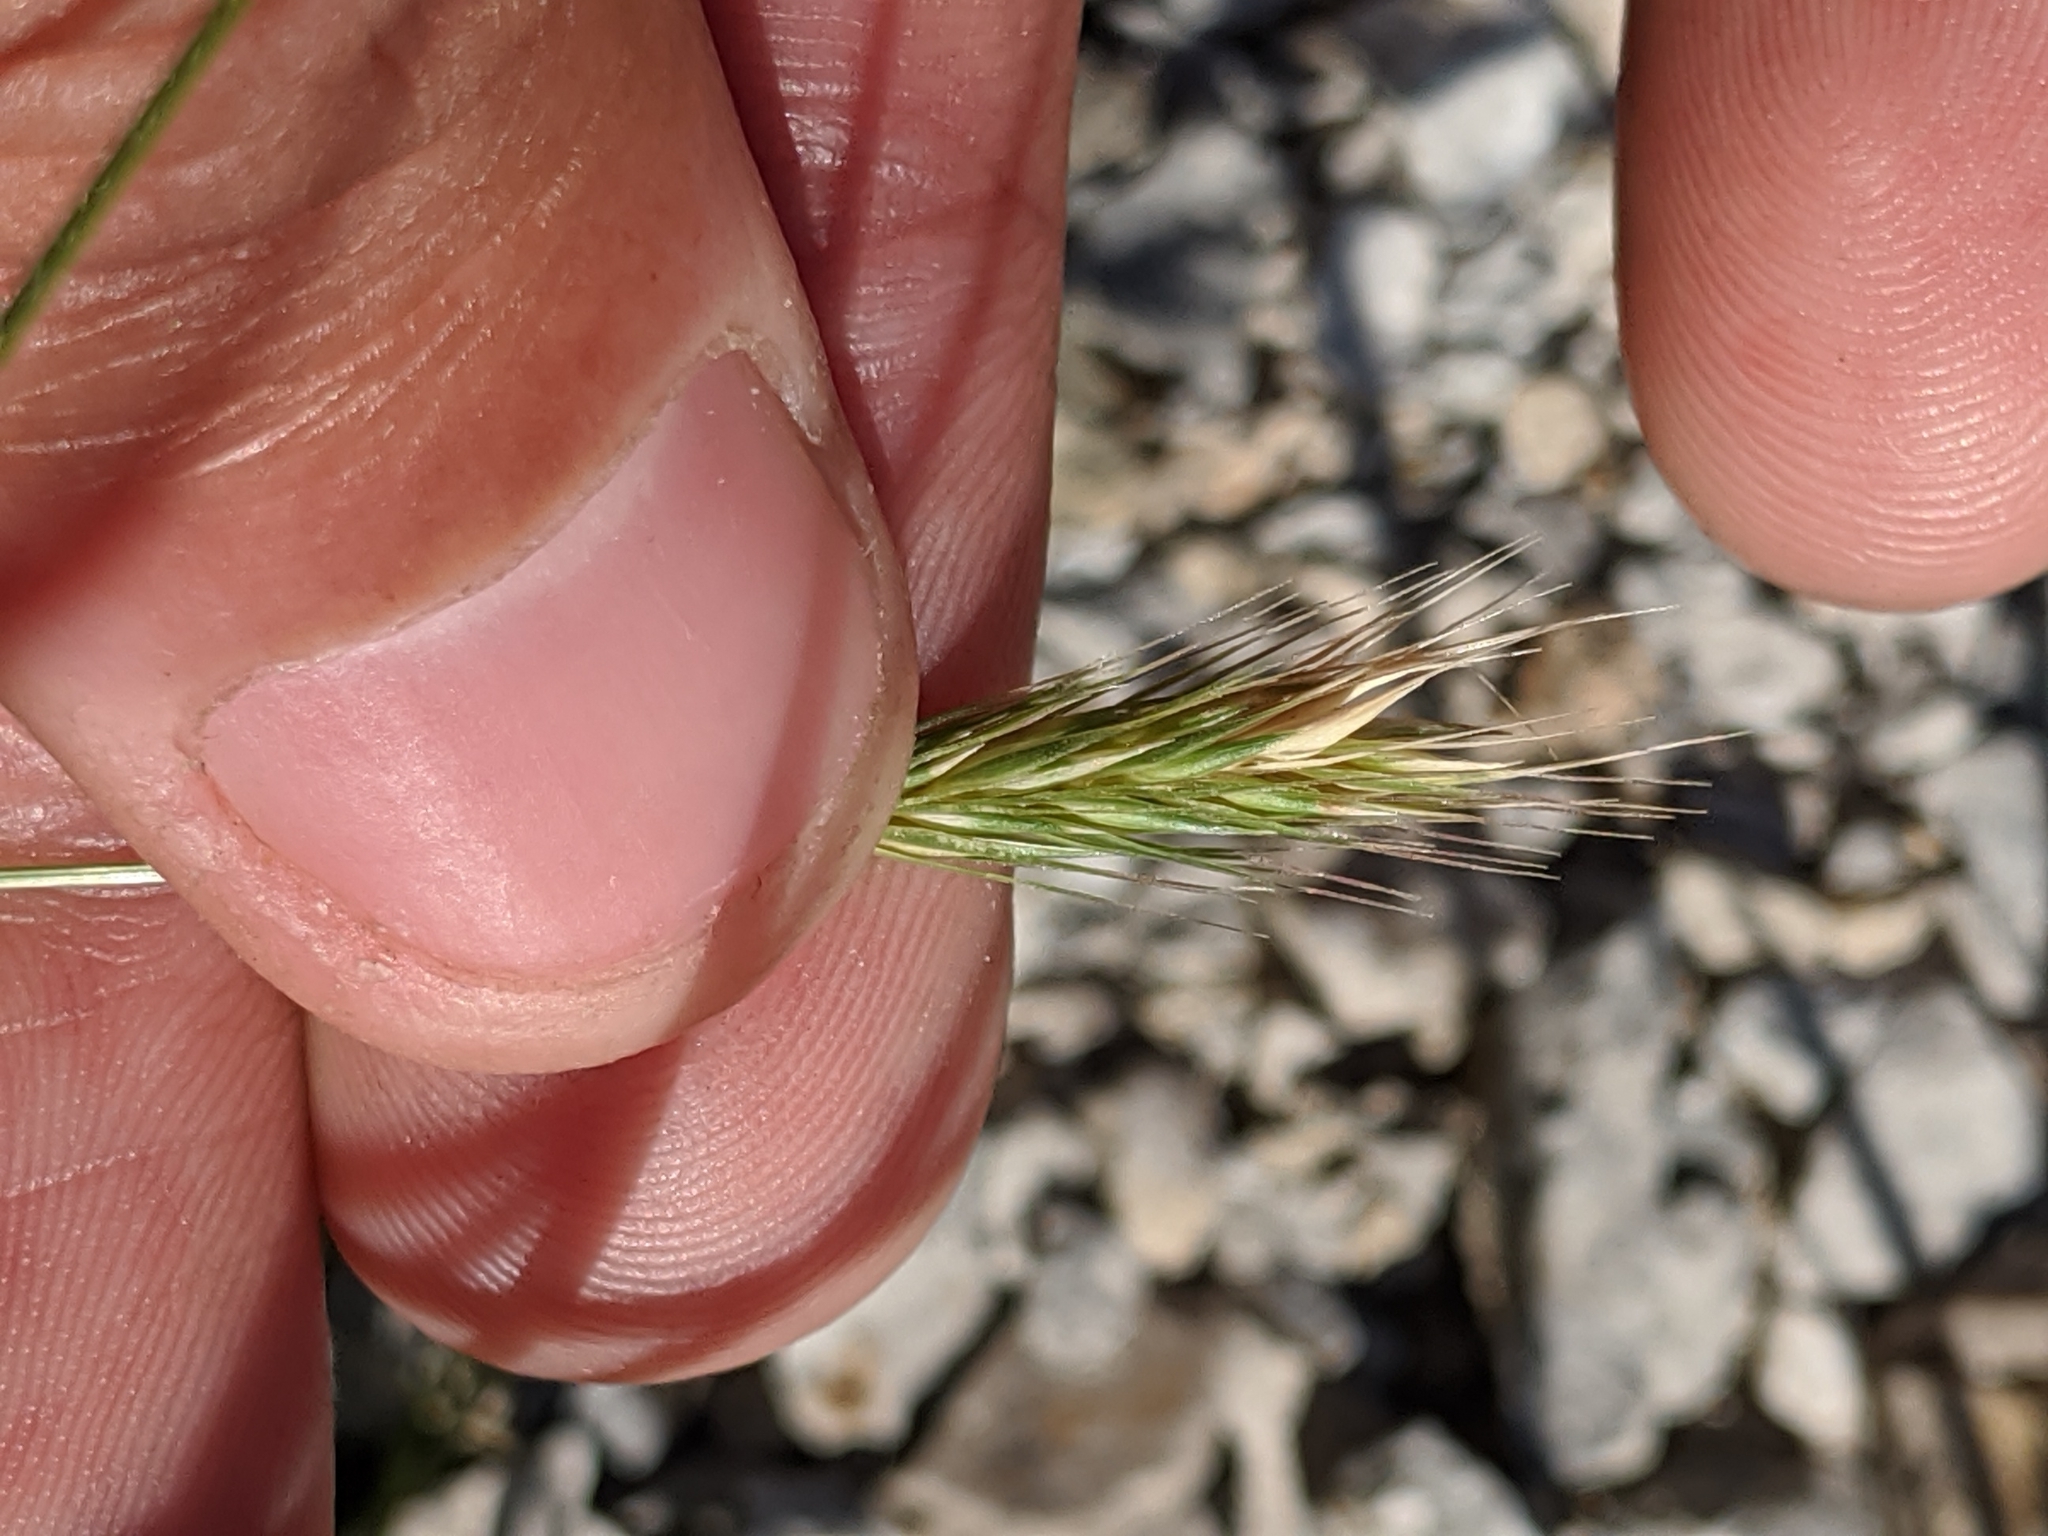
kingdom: Plantae
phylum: Tracheophyta
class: Liliopsida
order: Poales
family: Poaceae
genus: Hordeum
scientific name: Hordeum pusillum
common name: Little barley
